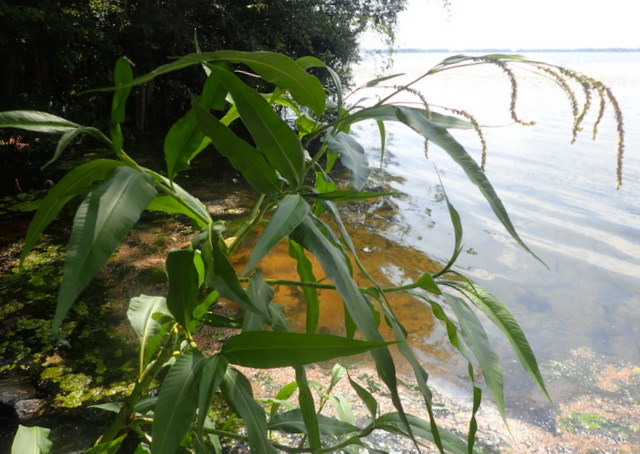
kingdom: Plantae
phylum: Tracheophyta
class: Magnoliopsida
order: Caryophyllales
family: Polygonaceae
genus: Persicaria
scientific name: Persicaria lapathifolia
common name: Curlytop knotweed
